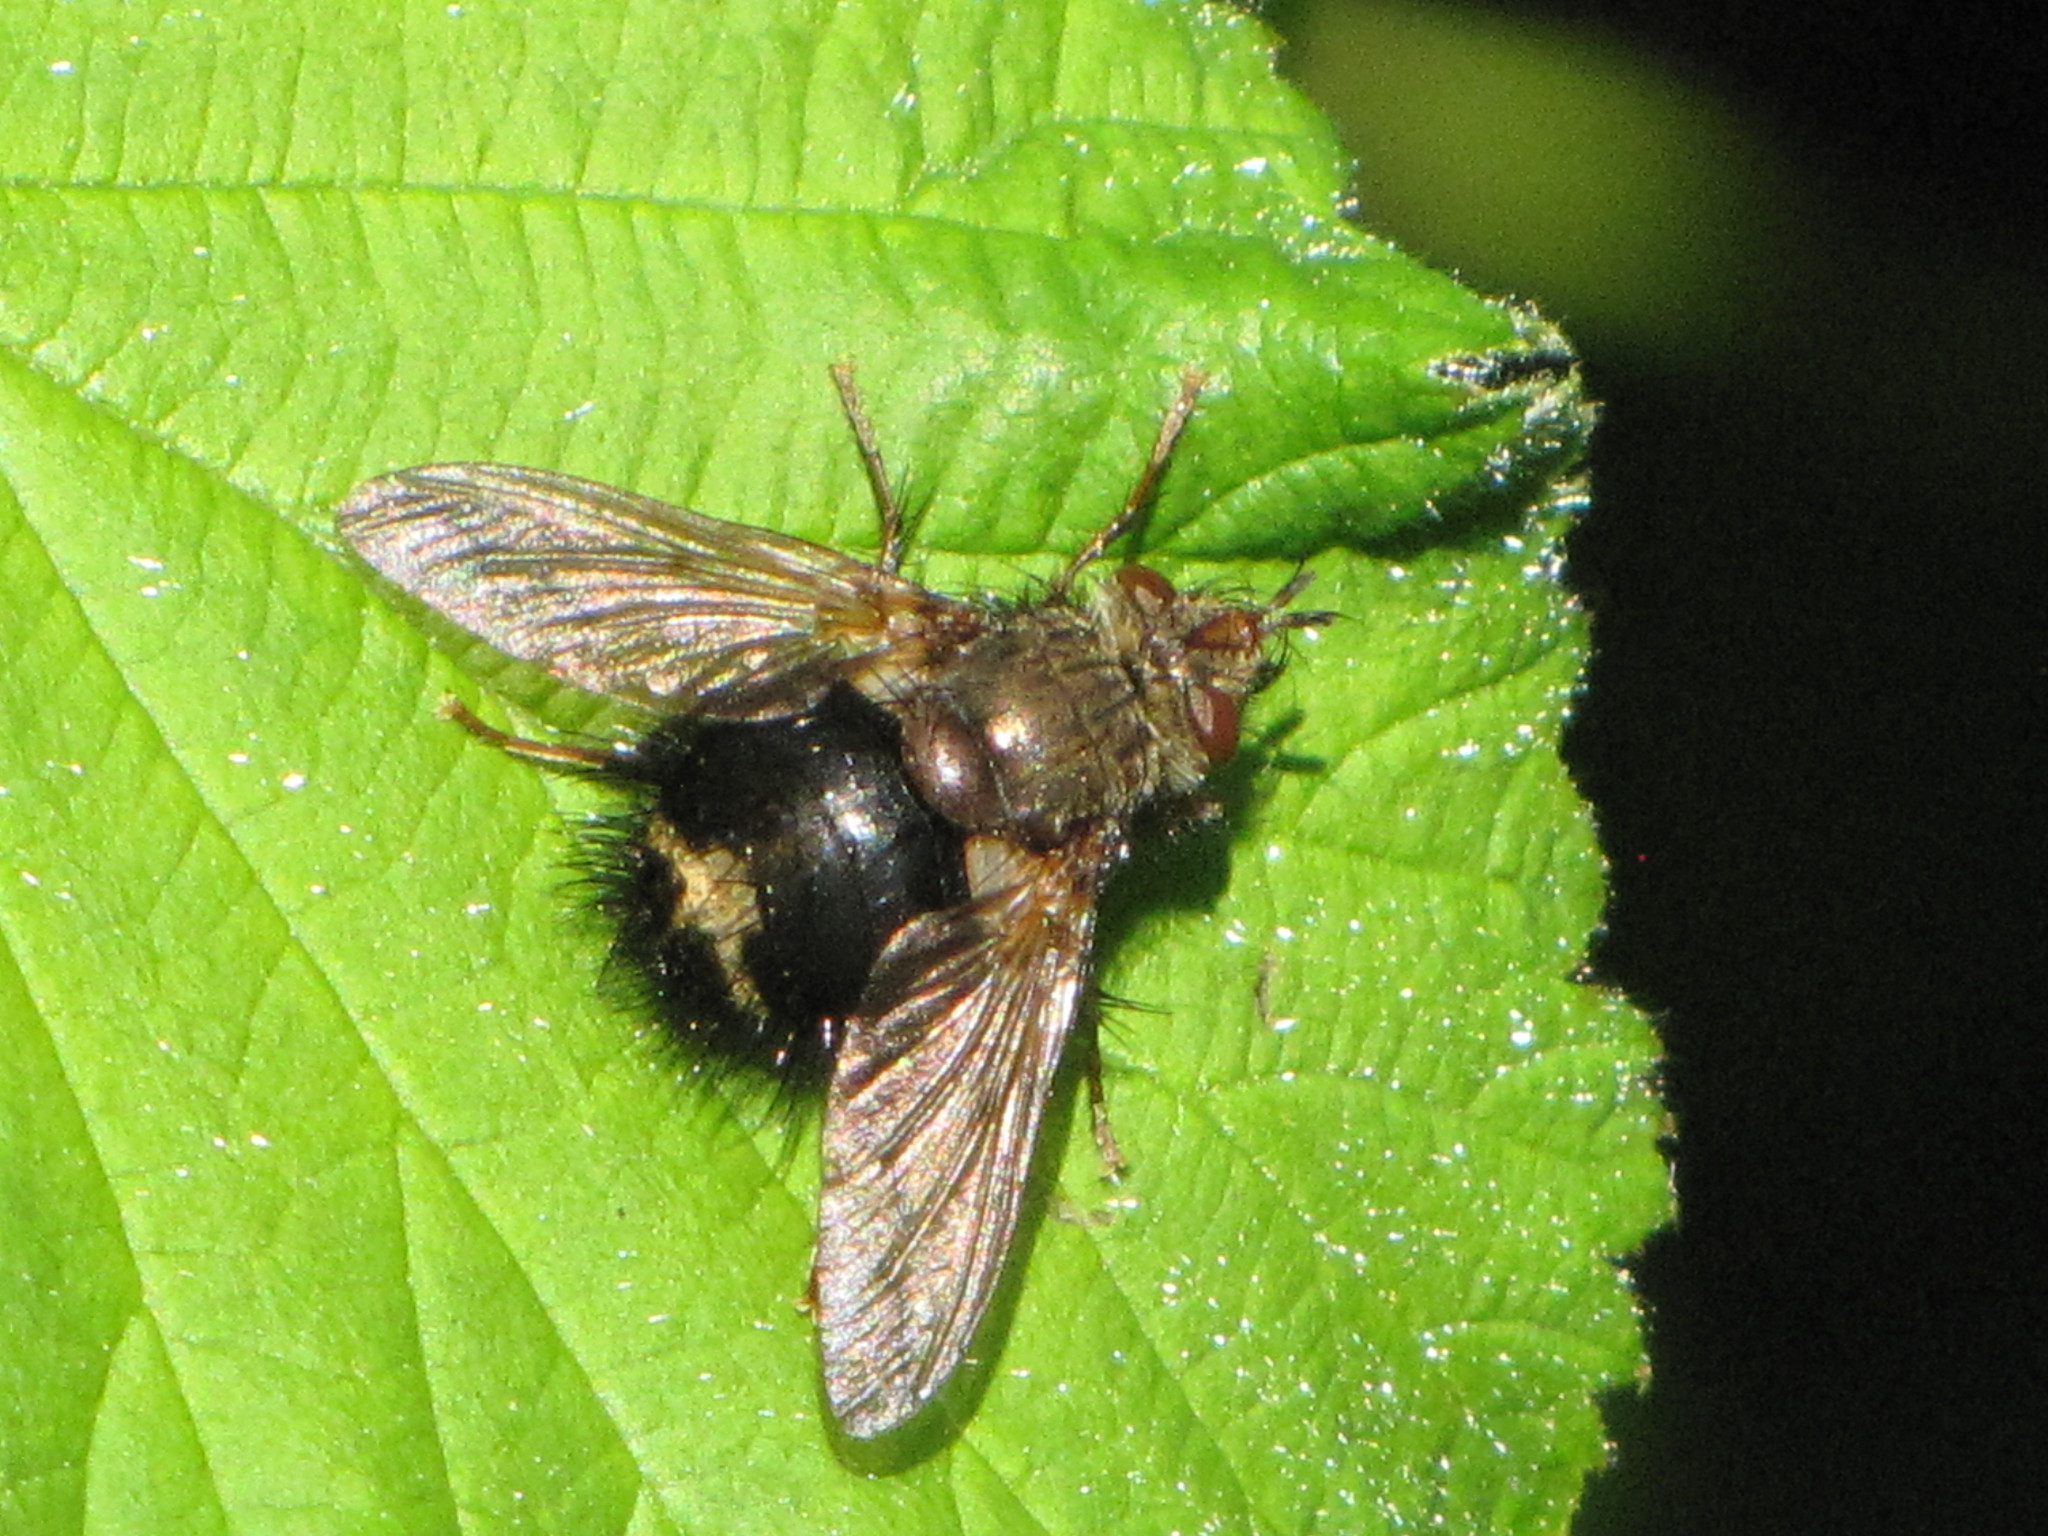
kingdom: Animalia
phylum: Arthropoda
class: Insecta
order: Diptera
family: Tachinidae
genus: Epalpus
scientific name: Epalpus signifer
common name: Early tachinid fly
